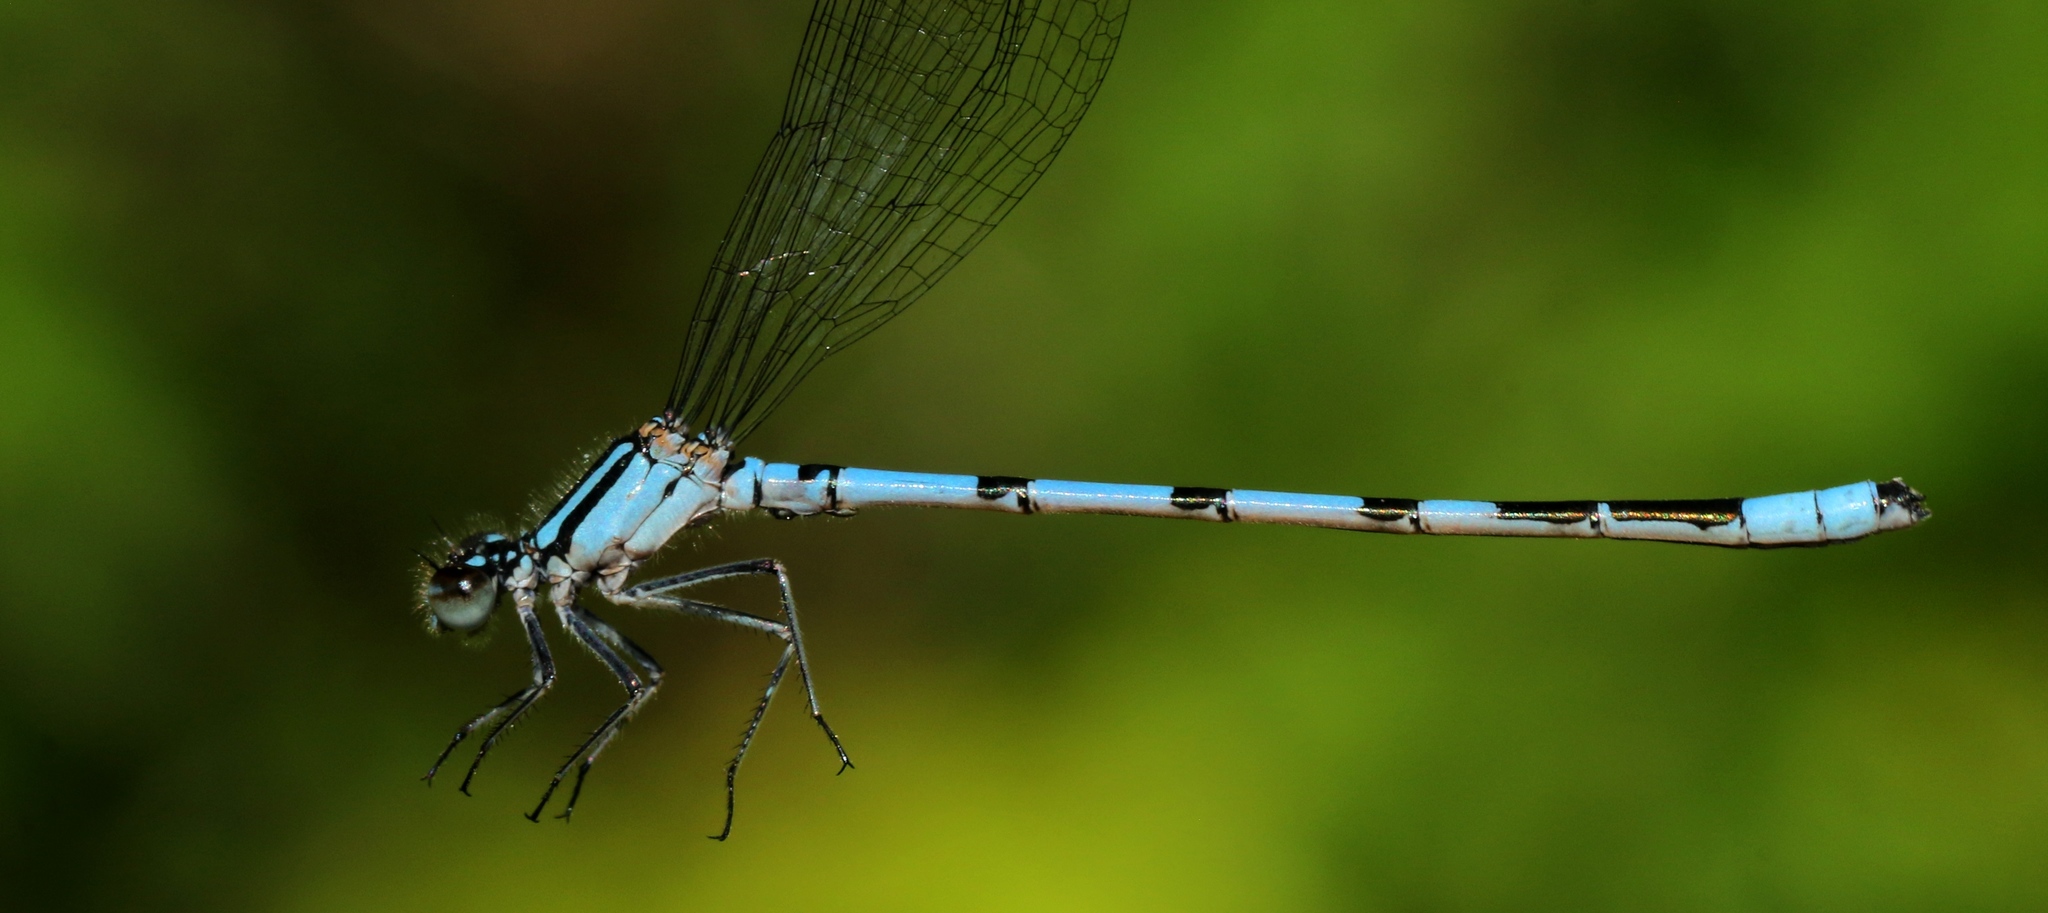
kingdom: Animalia
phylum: Arthropoda
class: Insecta
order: Odonata
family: Coenagrionidae
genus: Enallagma
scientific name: Enallagma hageni
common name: Hagen's bluet
